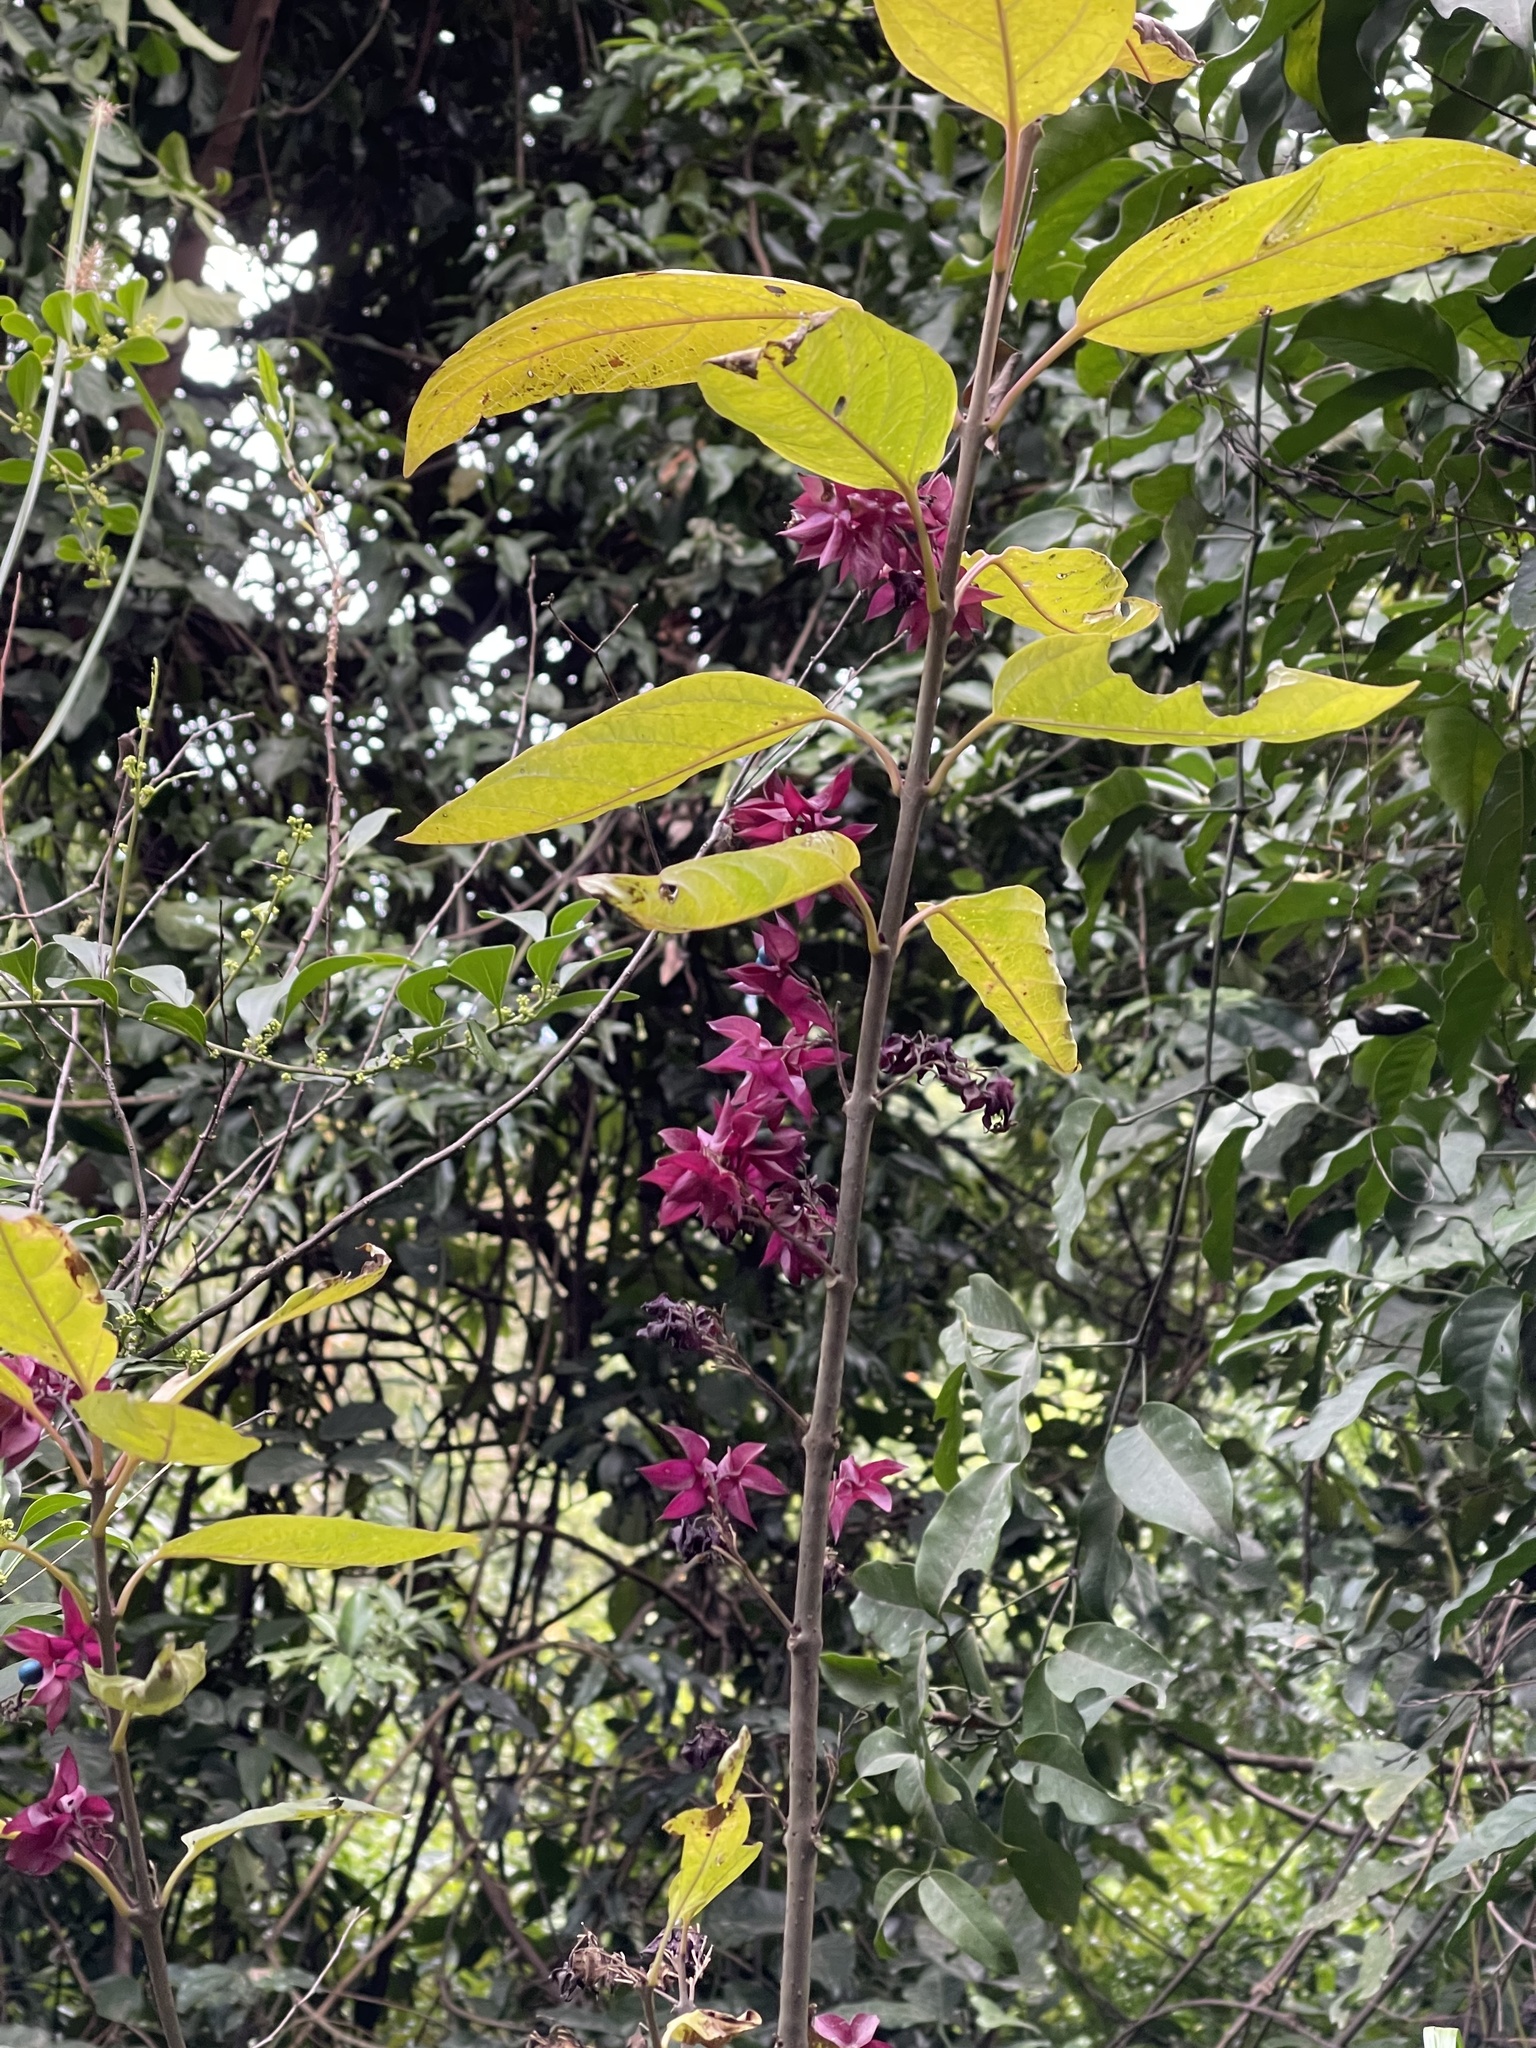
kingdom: Plantae
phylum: Tracheophyta
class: Magnoliopsida
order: Lamiales
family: Lamiaceae
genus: Clerodendrum
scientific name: Clerodendrum fortunatum
